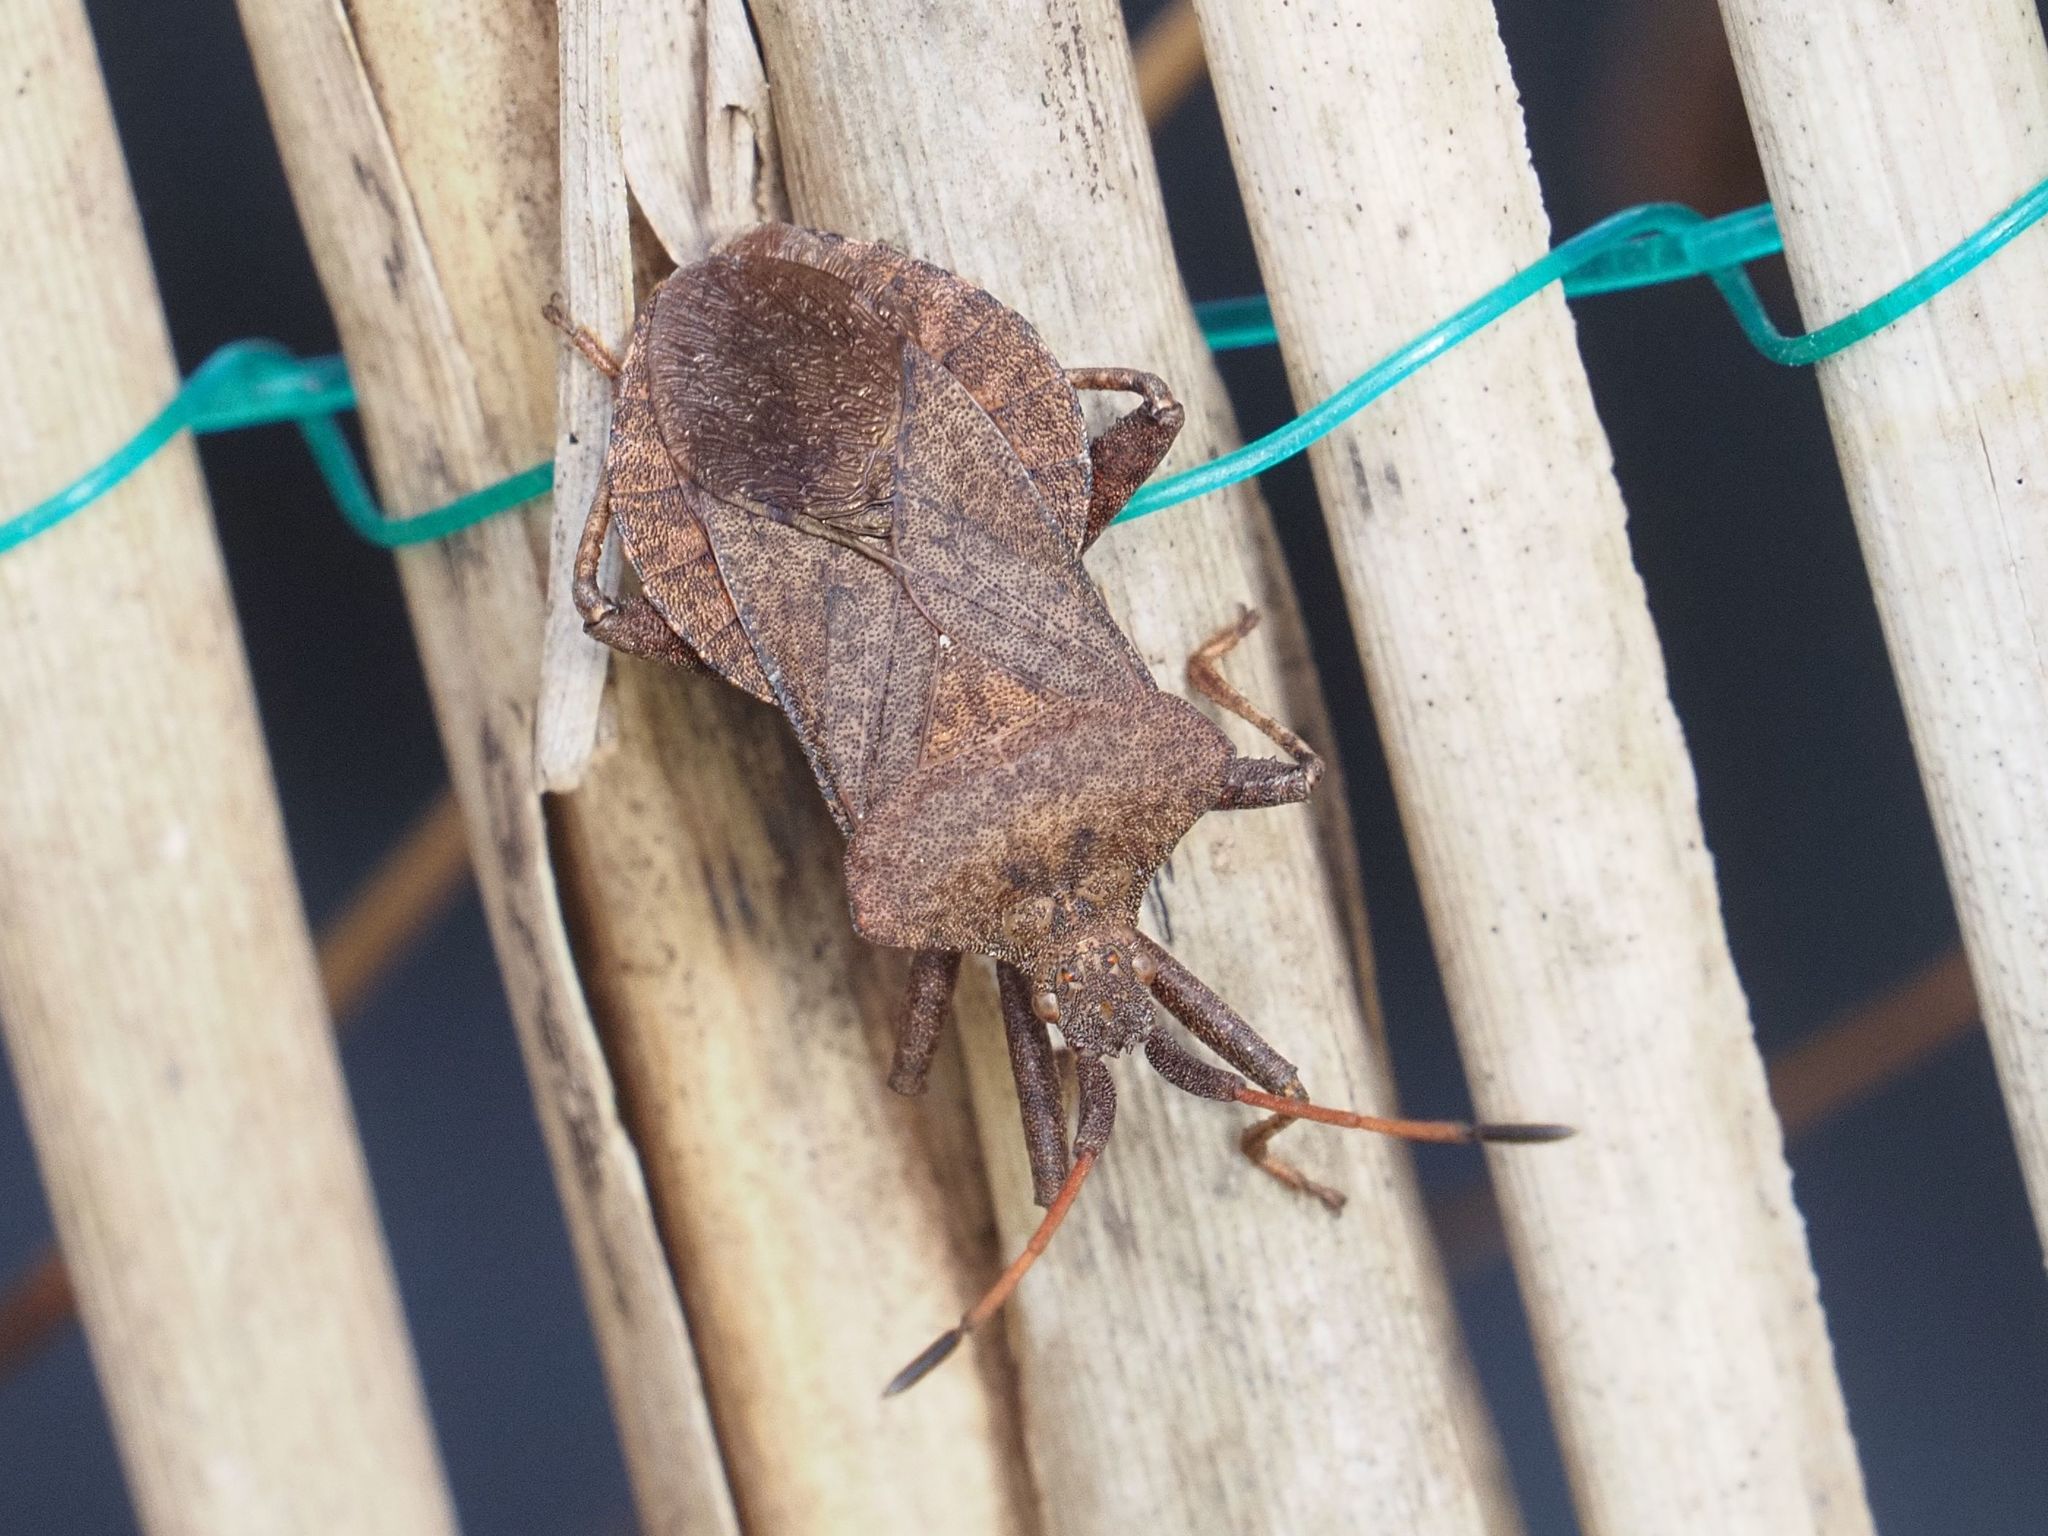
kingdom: Animalia
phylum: Arthropoda
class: Insecta
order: Hemiptera
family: Coreidae
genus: Coreus
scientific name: Coreus marginatus
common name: Dock bug
